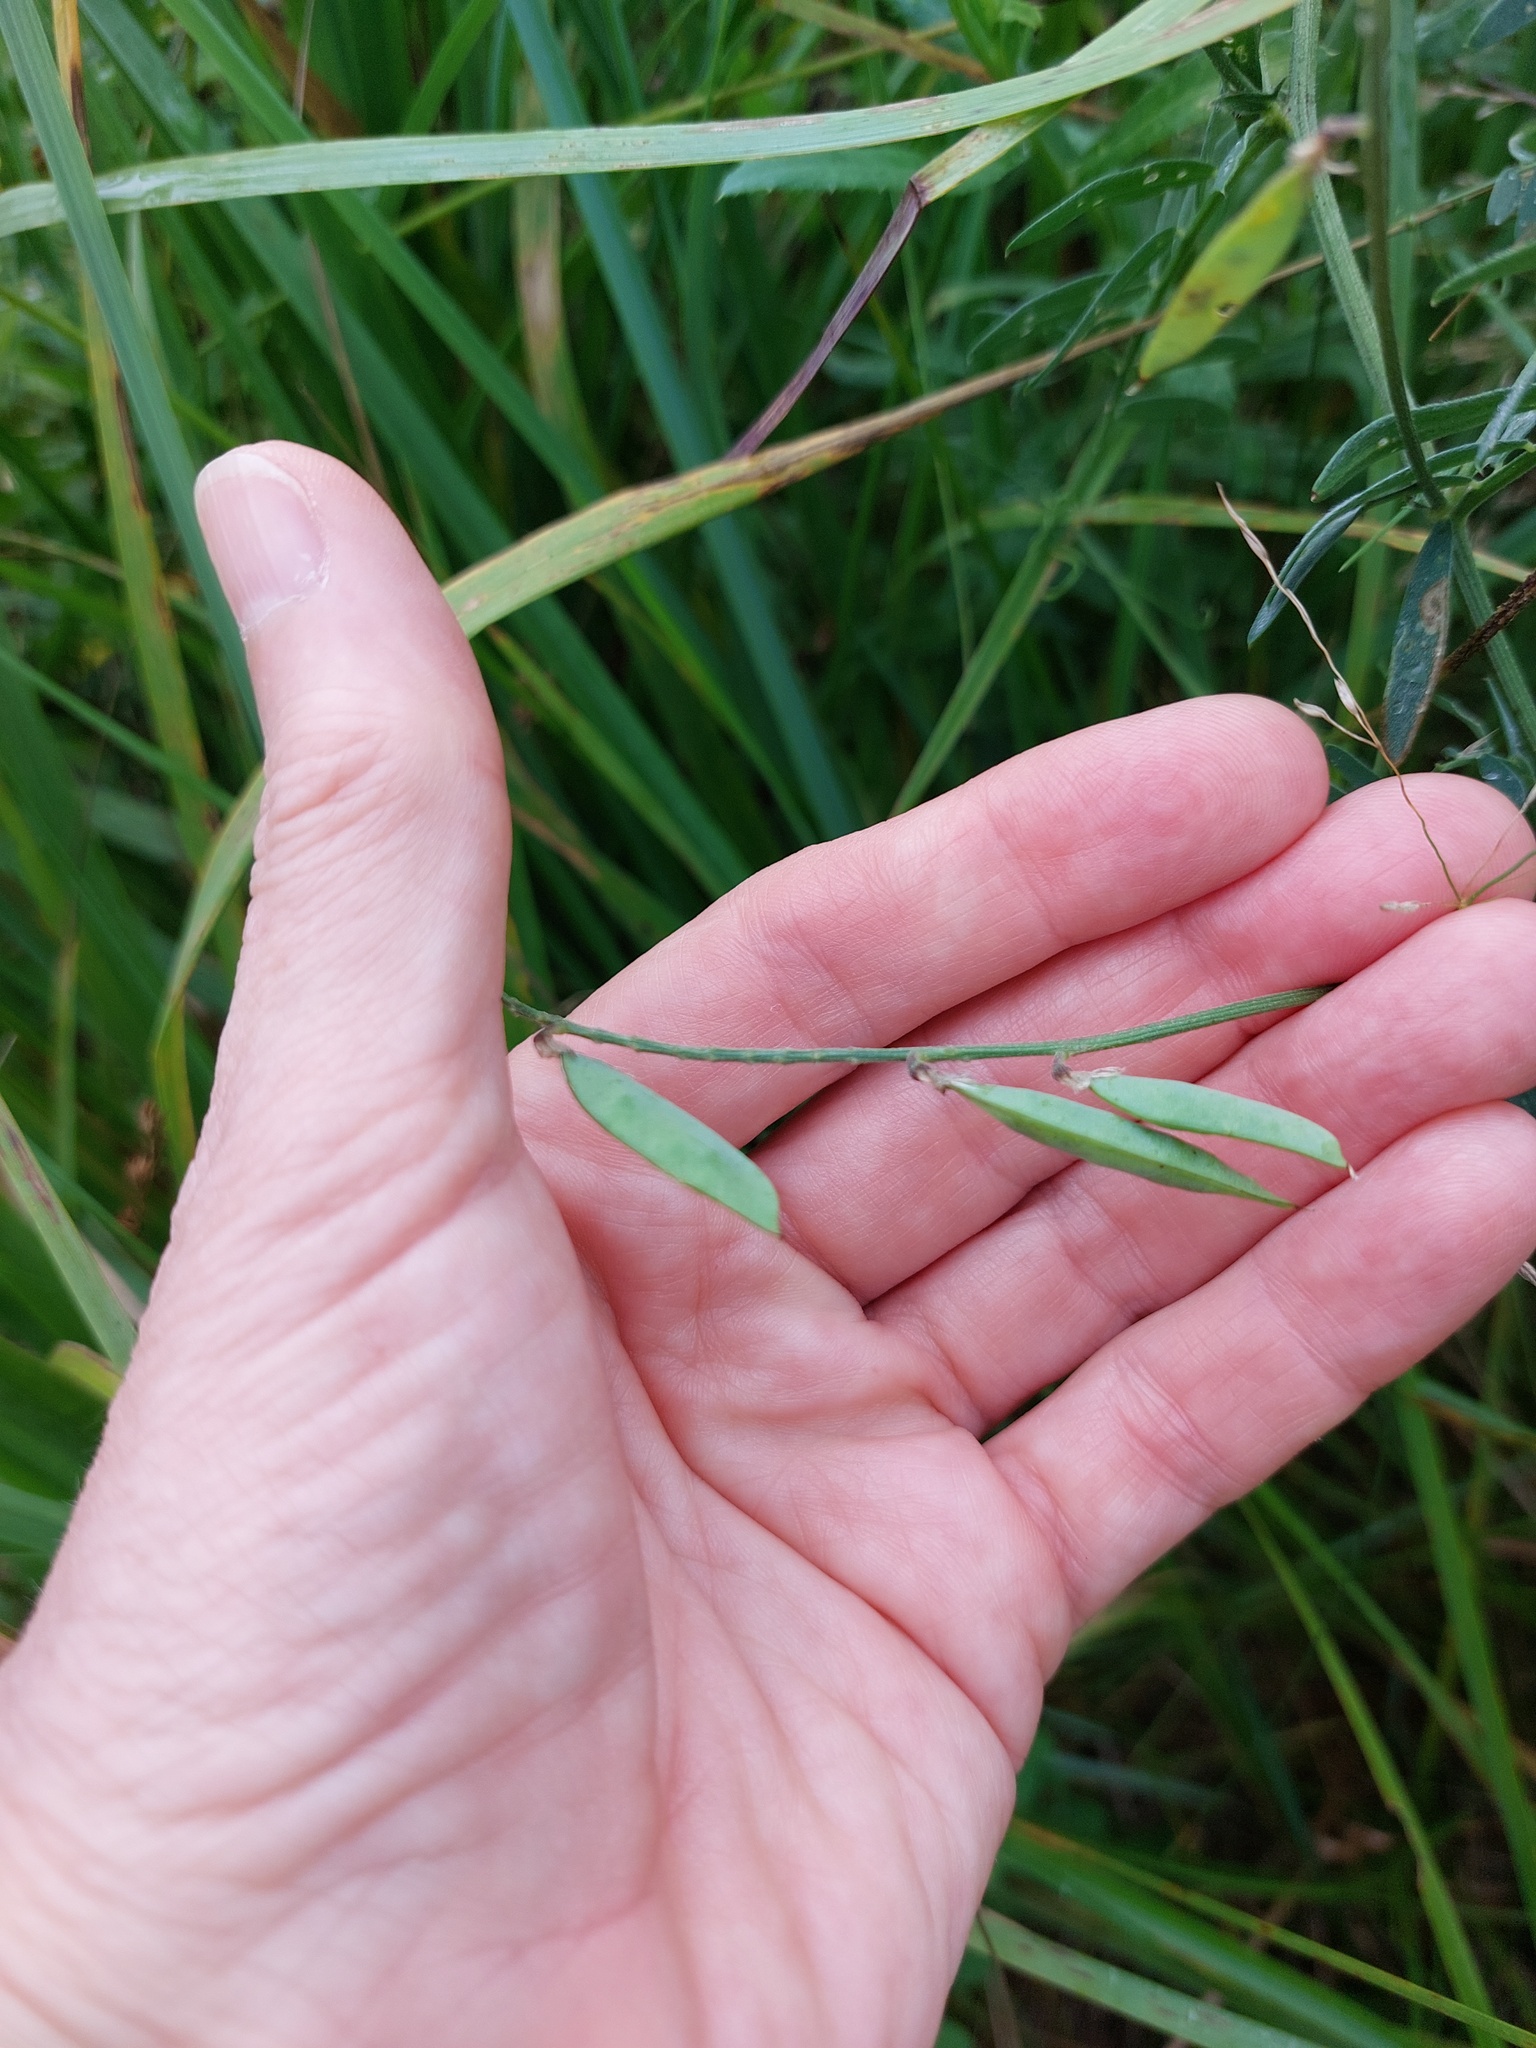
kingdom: Plantae
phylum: Tracheophyta
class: Magnoliopsida
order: Fabales
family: Fabaceae
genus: Vicia
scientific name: Vicia cracca
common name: Bird vetch
